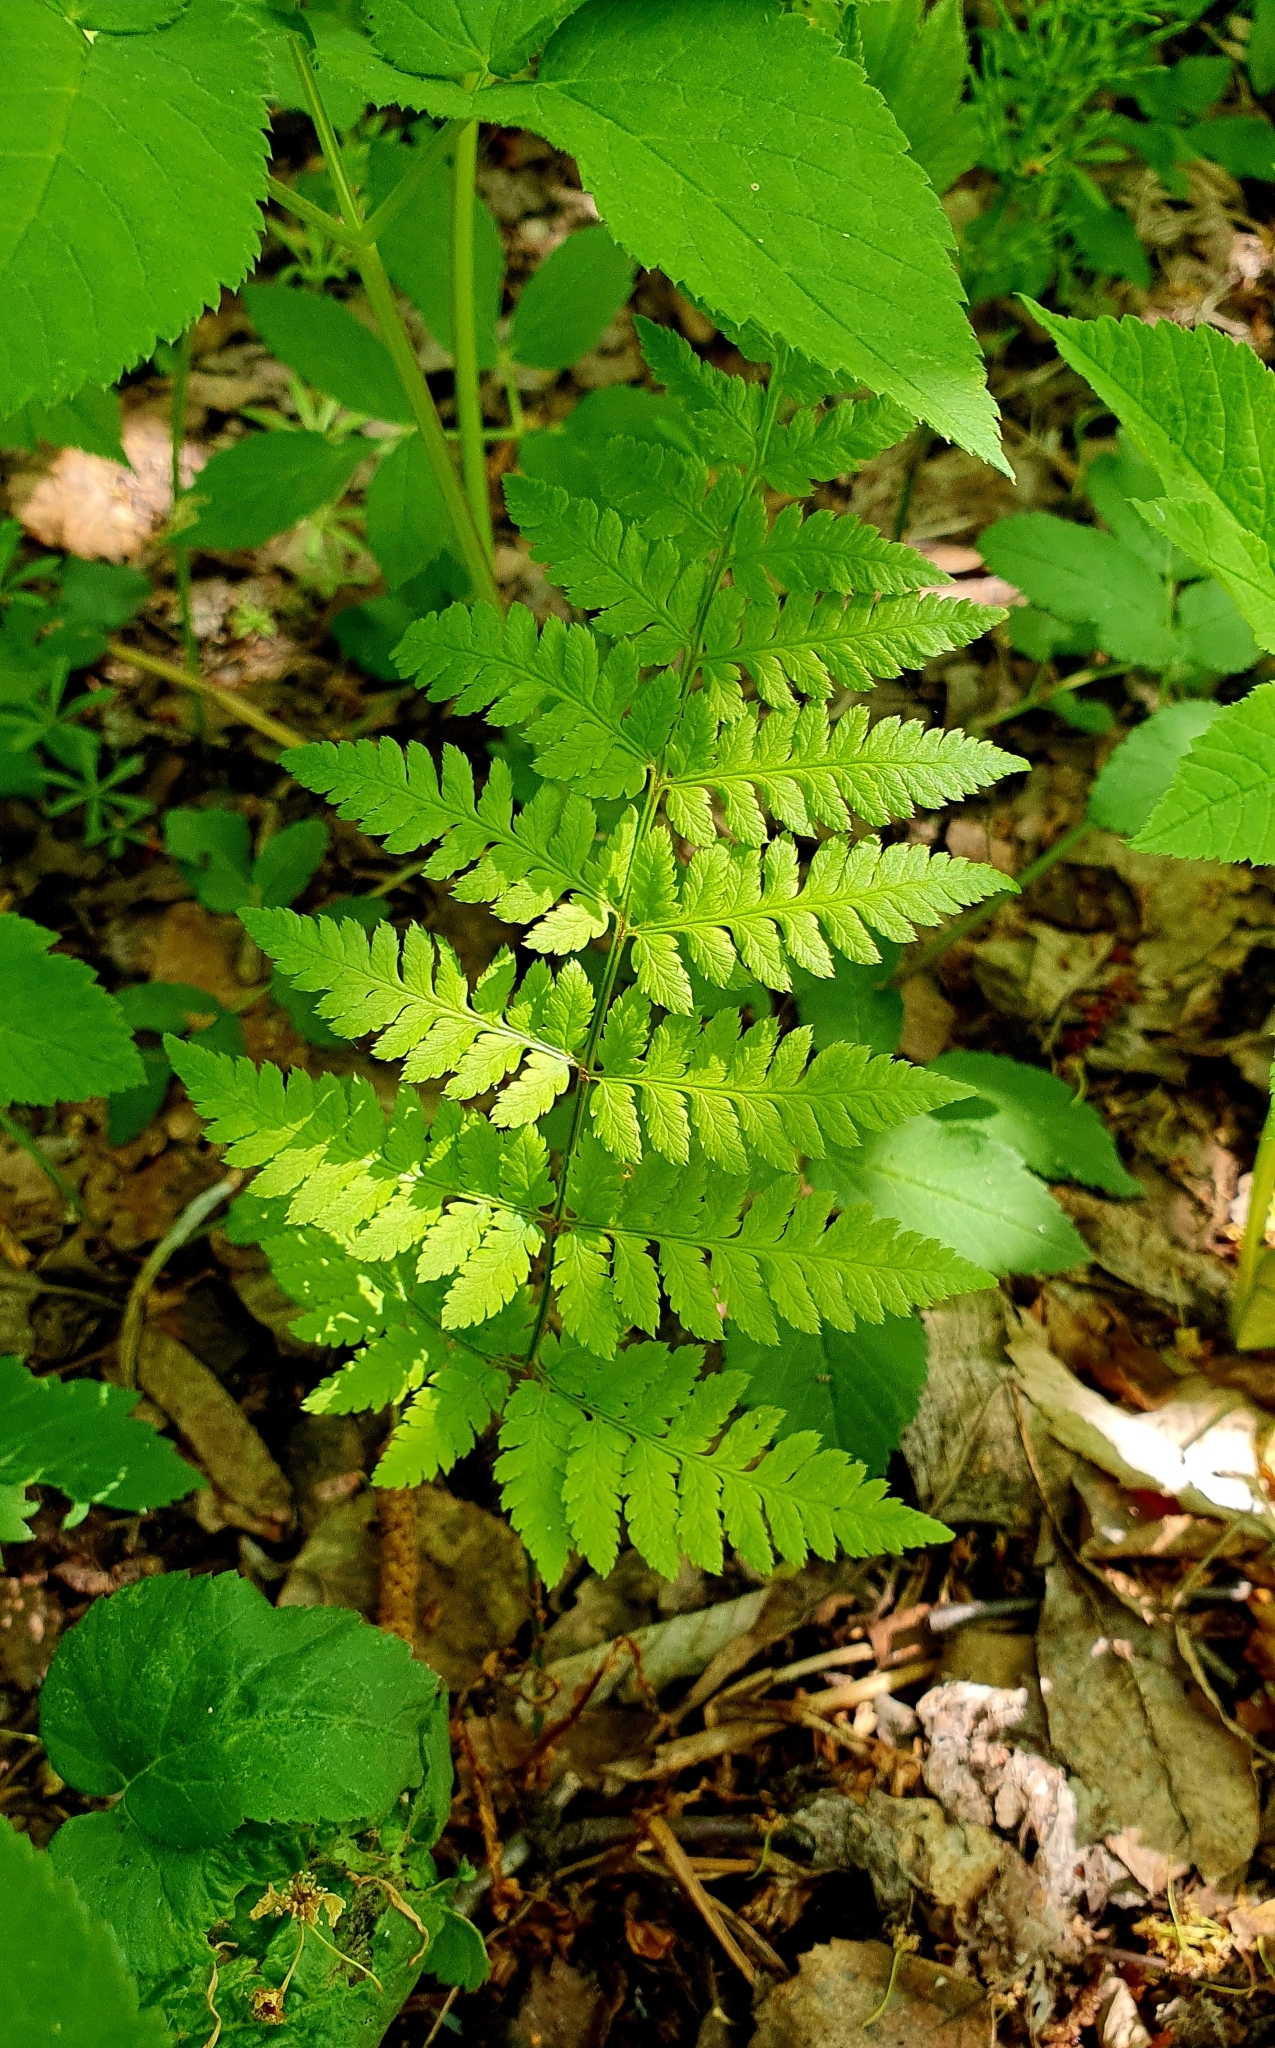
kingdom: Plantae
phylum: Tracheophyta
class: Polypodiopsida
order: Polypodiales
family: Dryopteridaceae
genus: Dryopteris
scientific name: Dryopteris carthusiana
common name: Narrow buckler-fern
